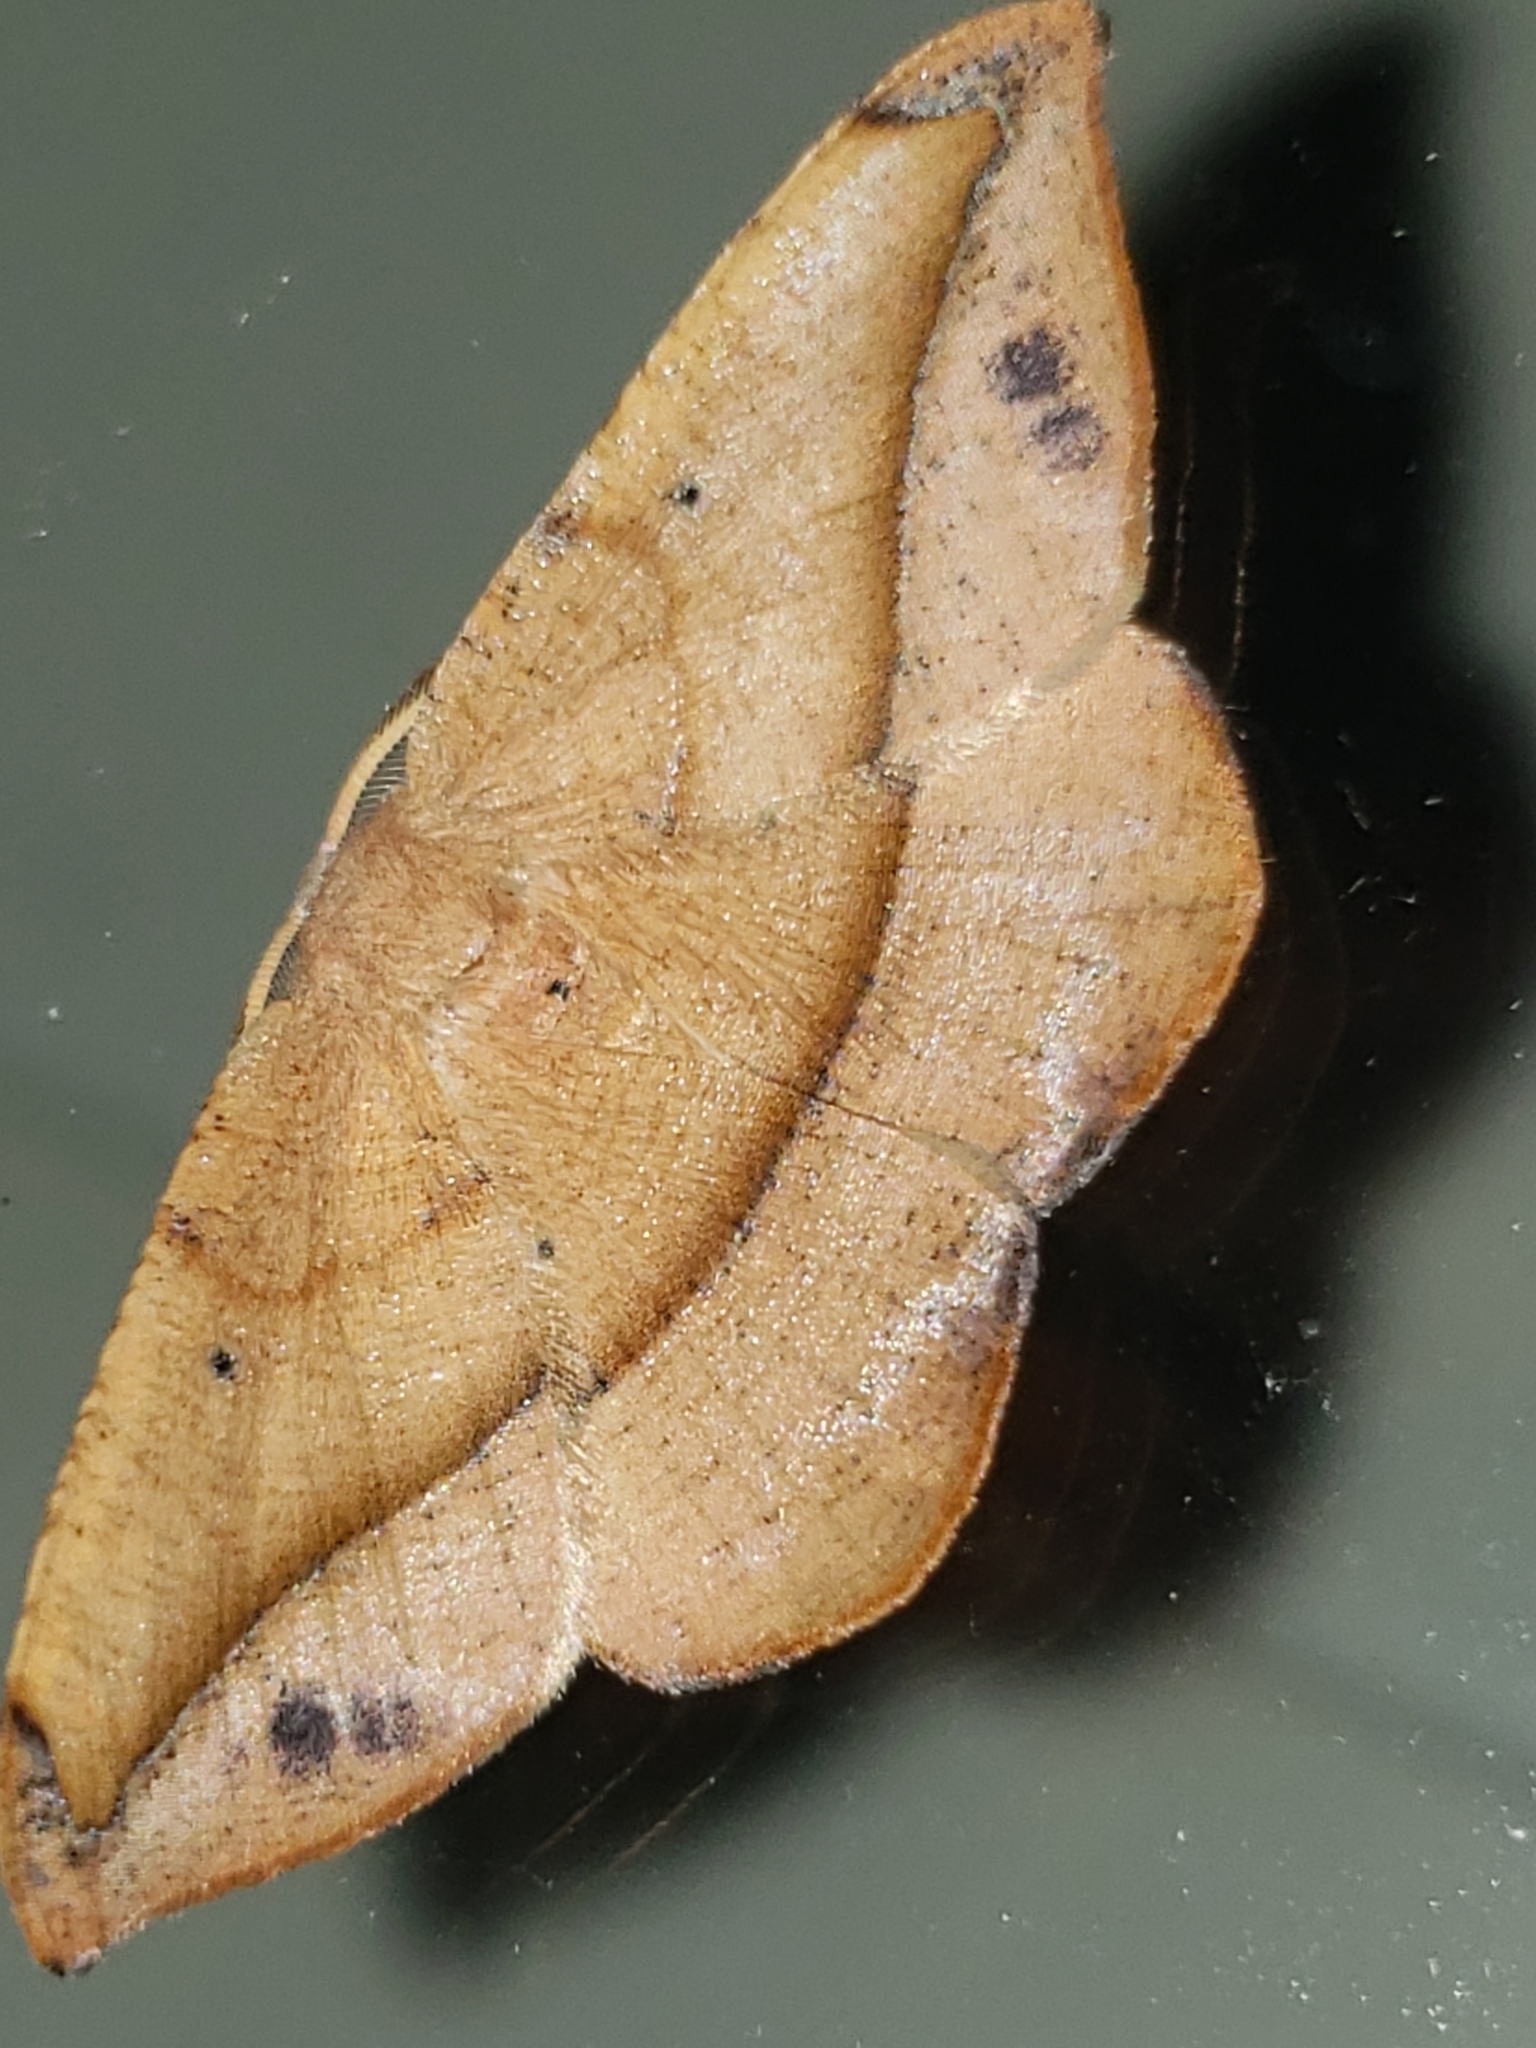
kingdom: Animalia
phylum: Arthropoda
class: Insecta
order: Lepidoptera
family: Geometridae
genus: Patalene
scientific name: Patalene olyzonaria
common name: Juniper geometer moth
